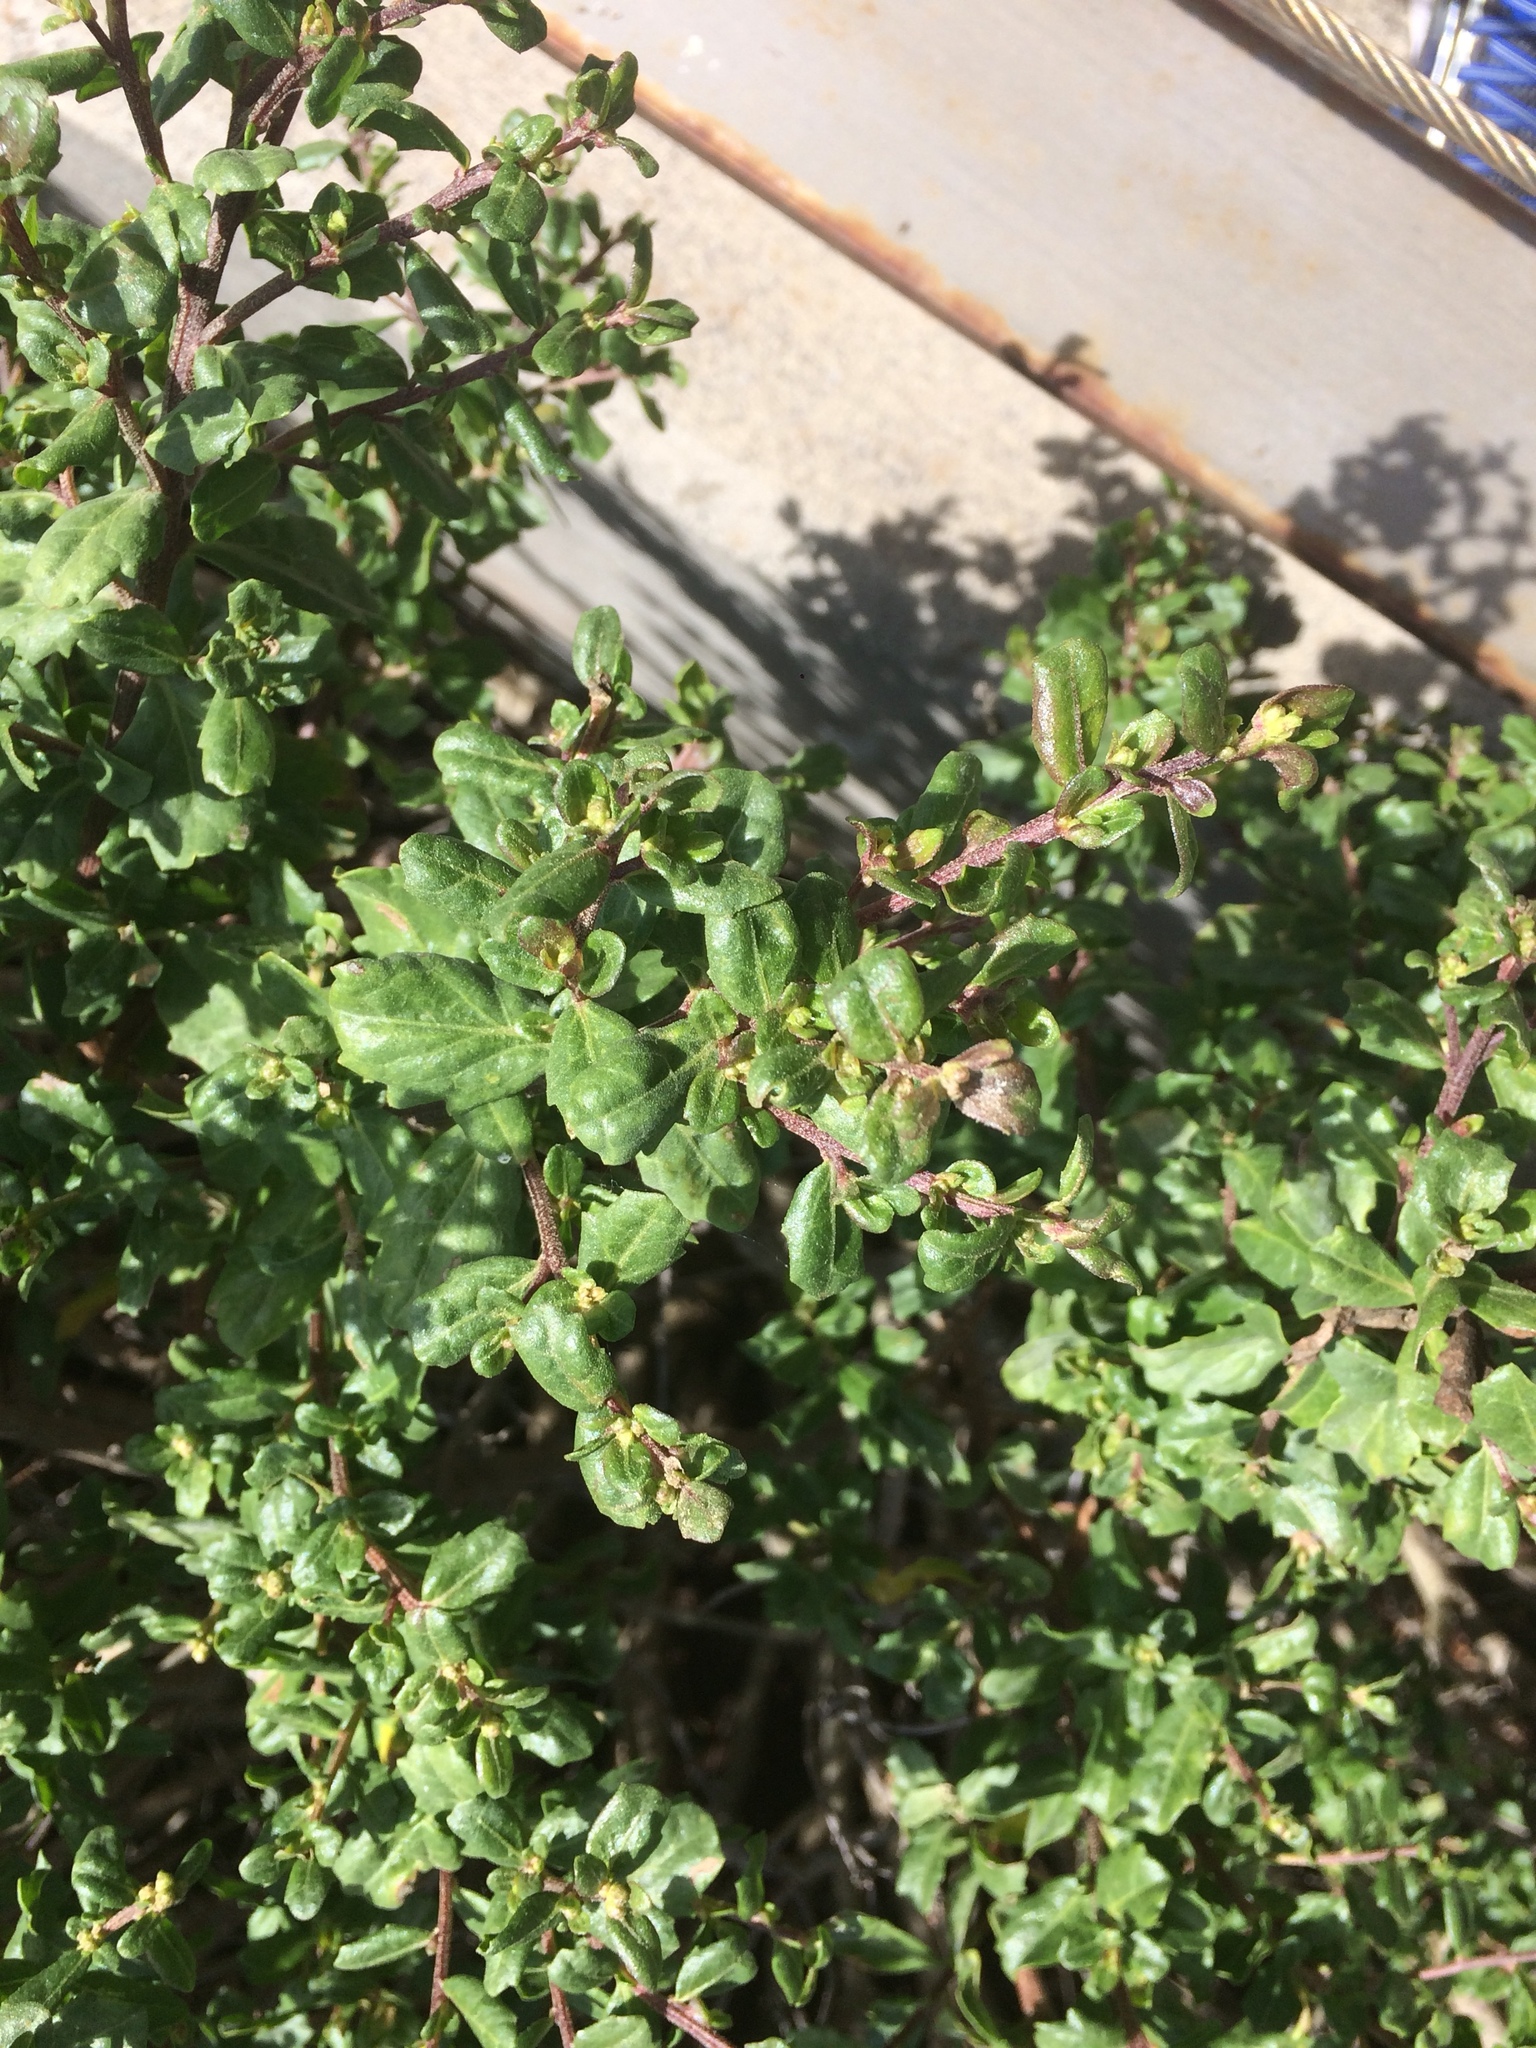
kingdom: Plantae
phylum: Tracheophyta
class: Magnoliopsida
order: Asterales
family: Asteraceae
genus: Baccharis
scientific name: Baccharis pilularis
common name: Coyotebrush
